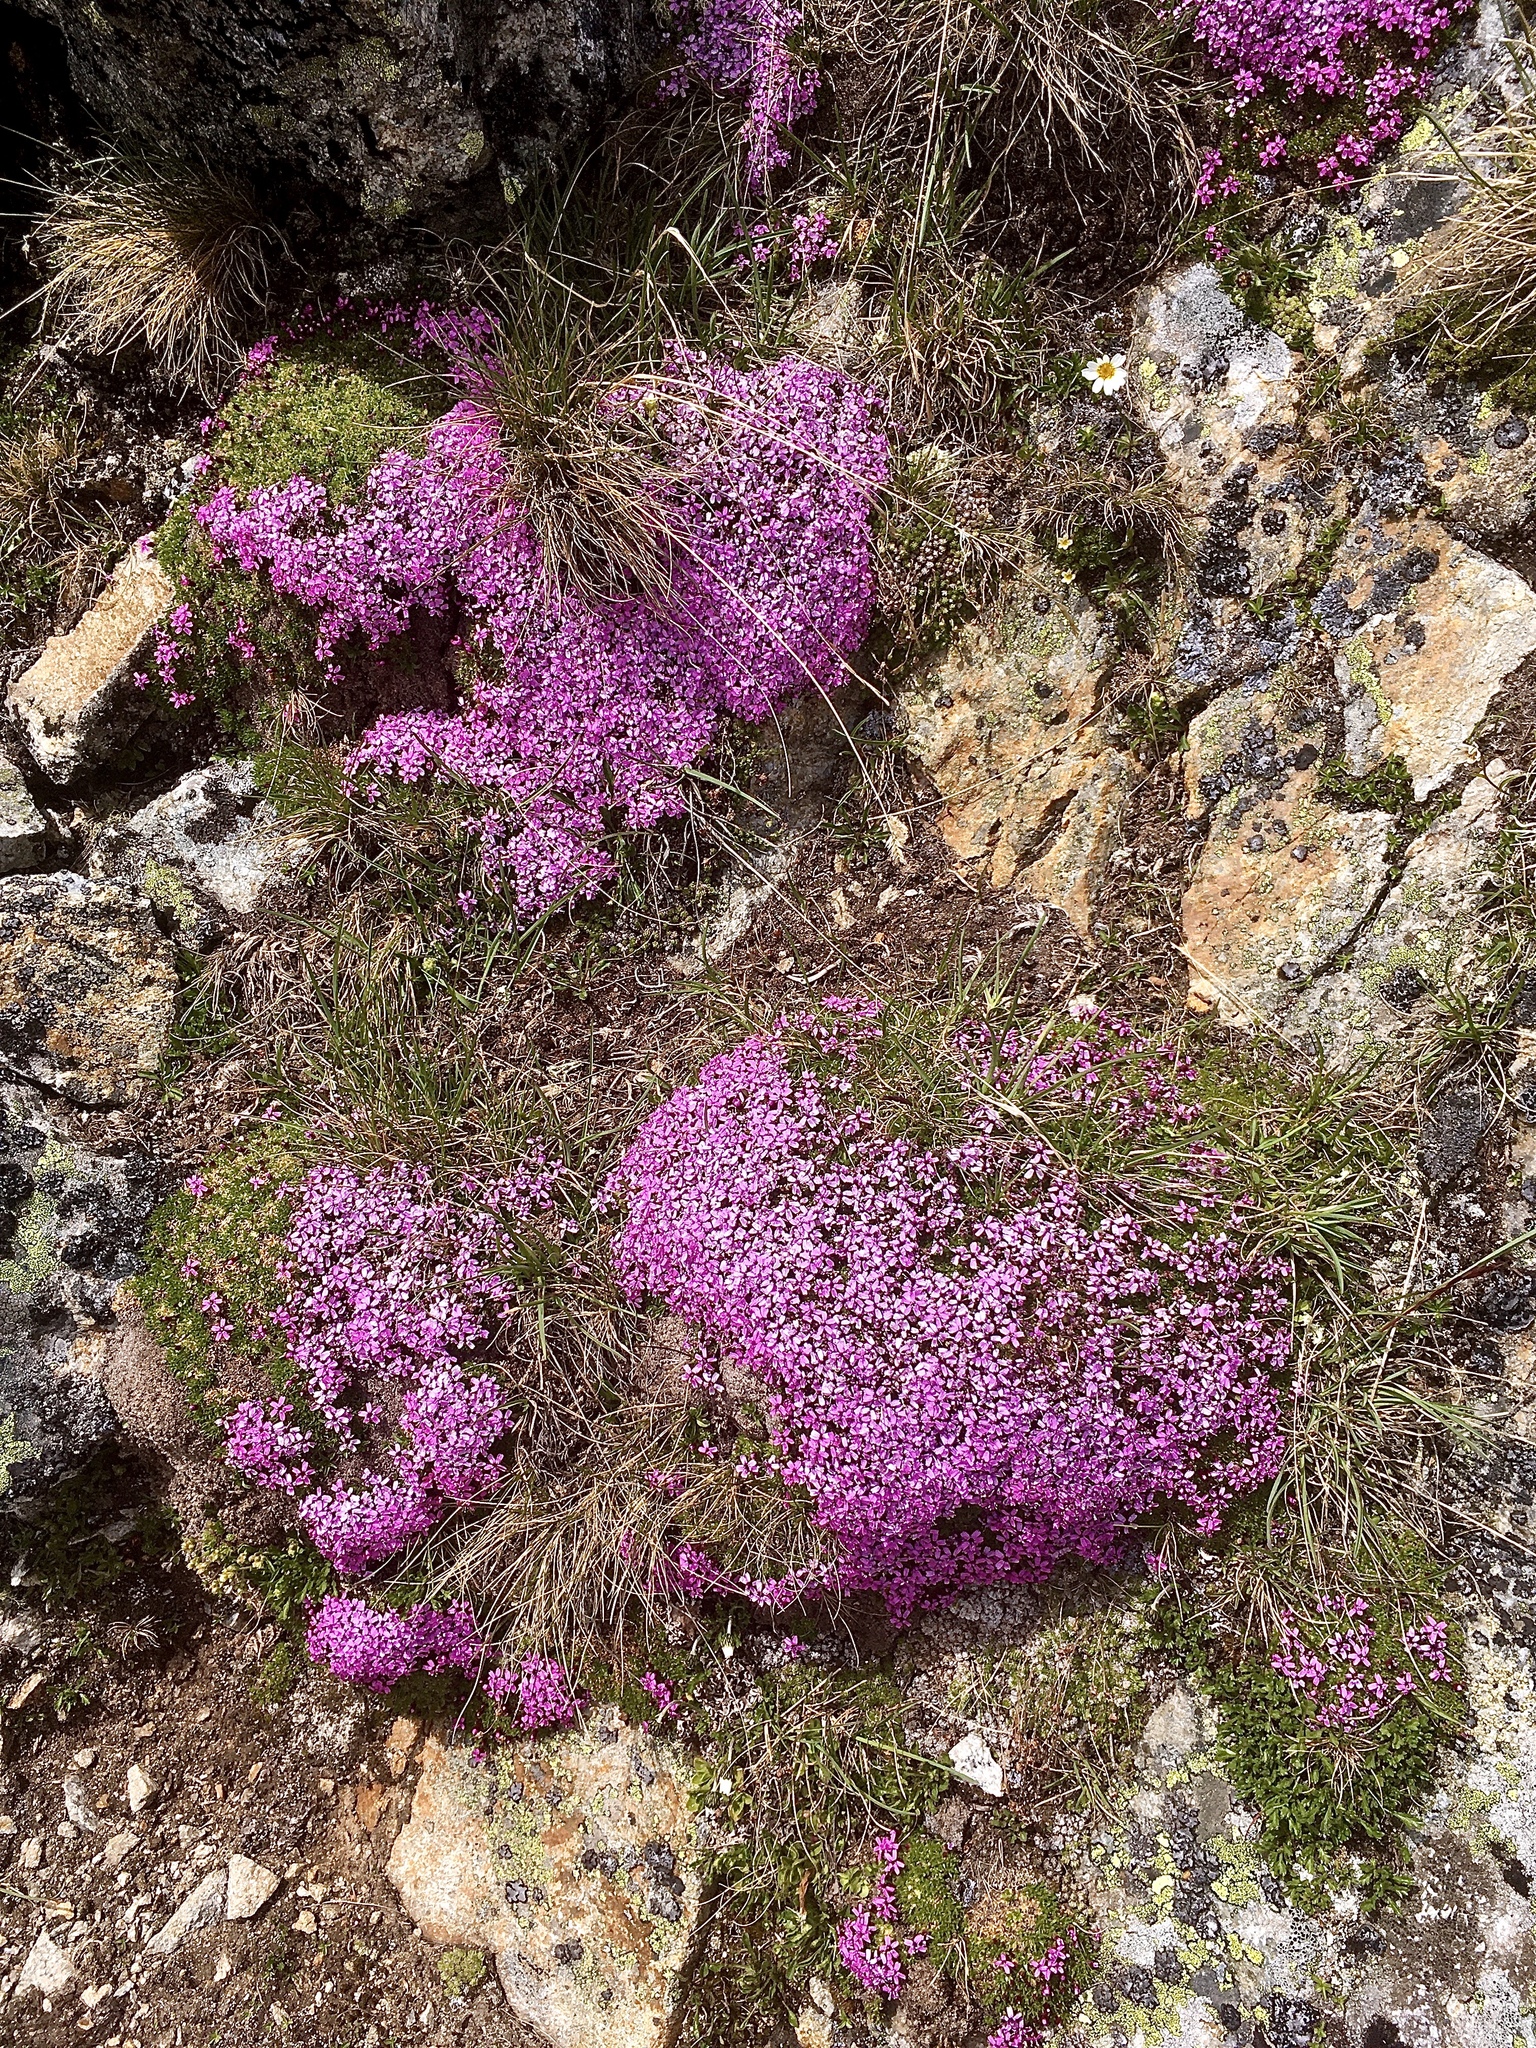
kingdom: Plantae
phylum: Tracheophyta
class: Magnoliopsida
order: Caryophyllales
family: Caryophyllaceae
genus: Silene
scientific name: Silene acaulis
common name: Moss campion
